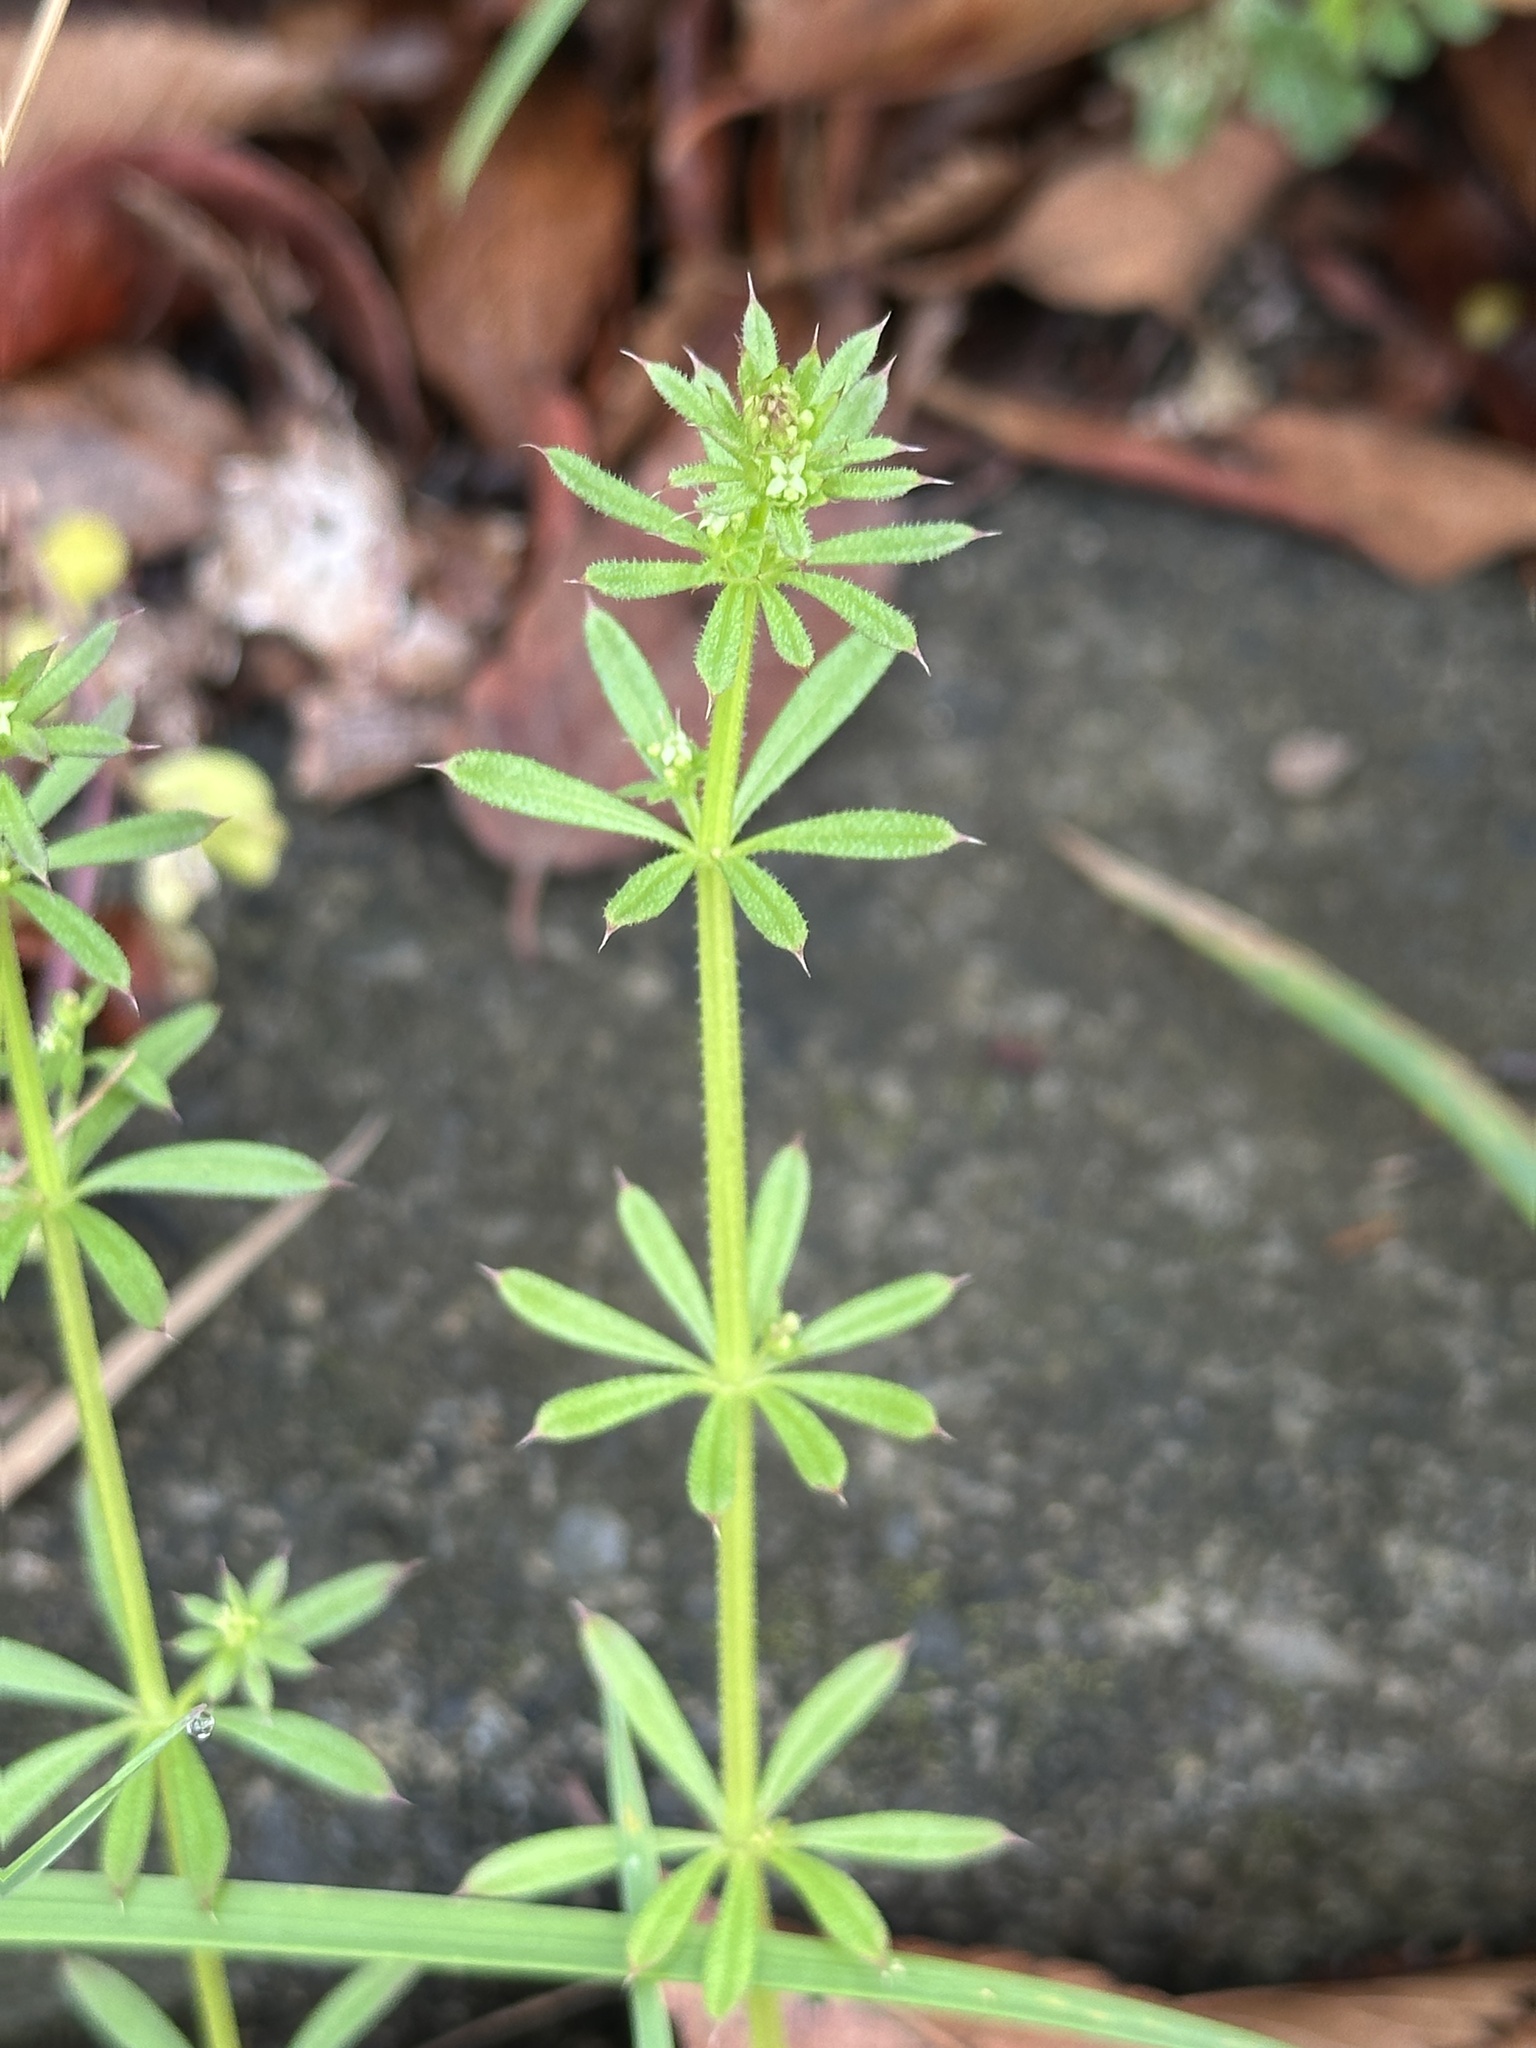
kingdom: Plantae
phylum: Tracheophyta
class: Magnoliopsida
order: Gentianales
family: Rubiaceae
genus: Galium
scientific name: Galium
